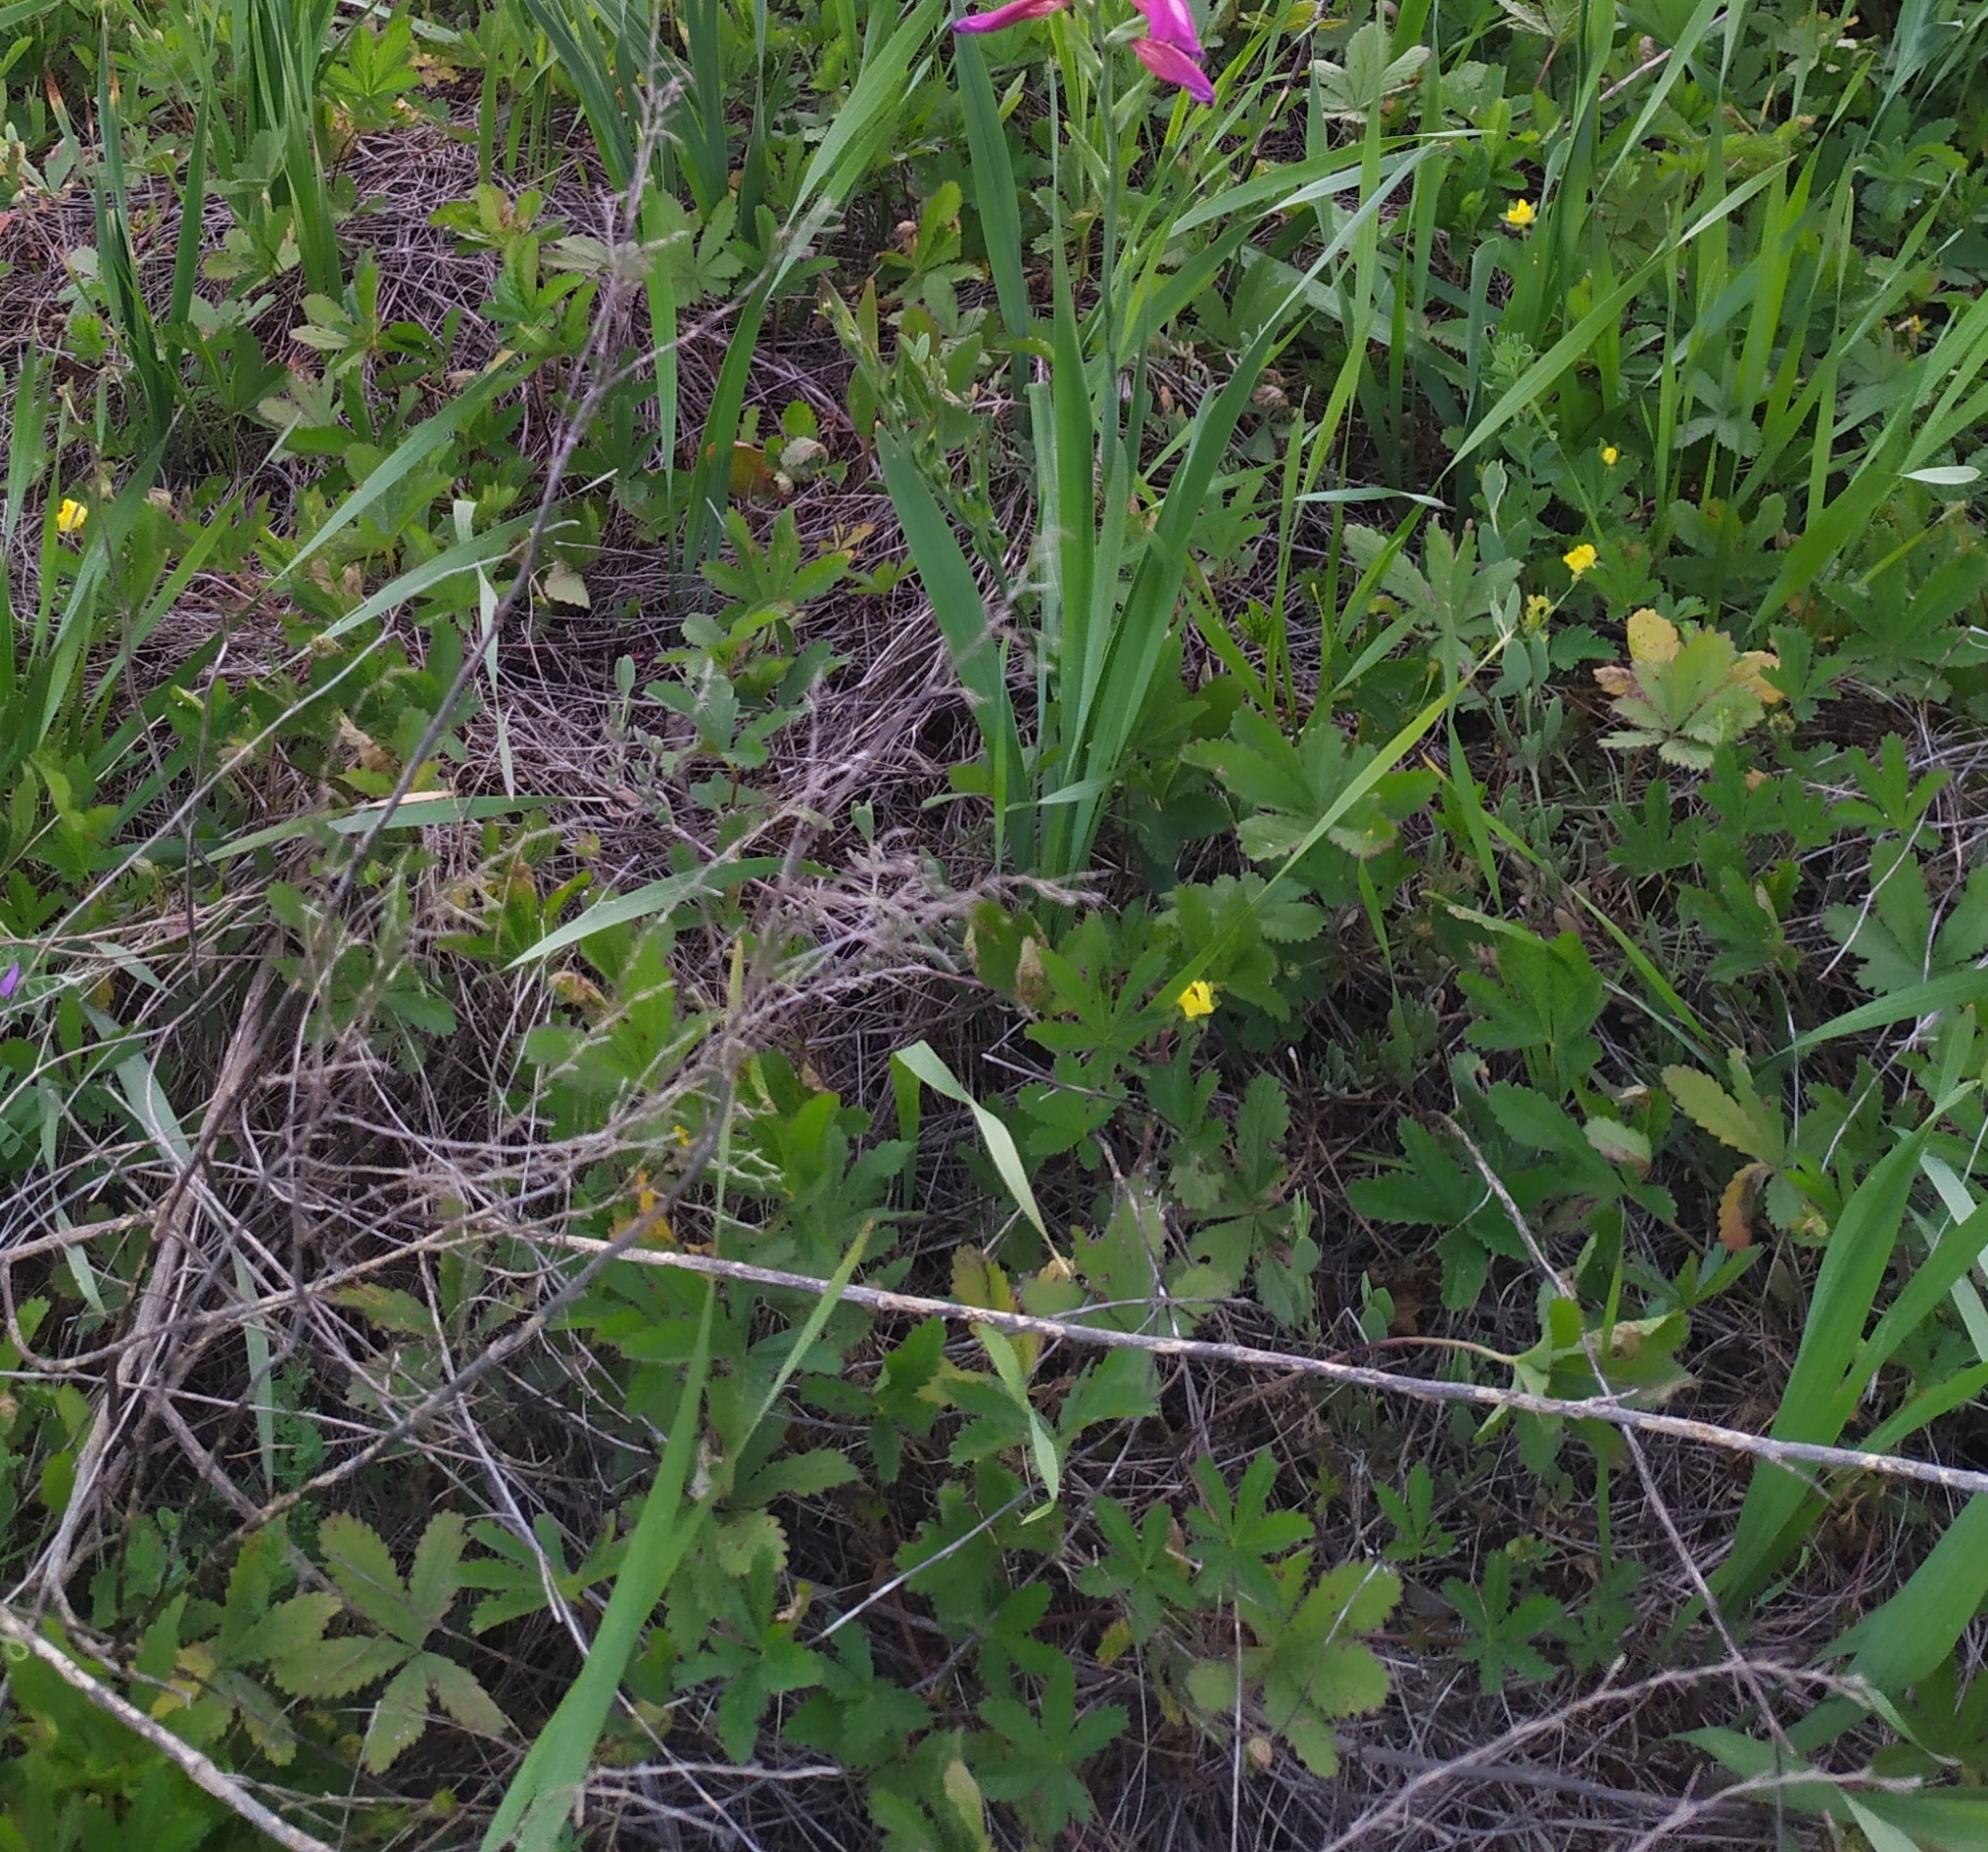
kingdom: Plantae
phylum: Tracheophyta
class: Magnoliopsida
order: Rosales
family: Rosaceae
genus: Potentilla
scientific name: Potentilla reptans
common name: Creeping cinquefoil
